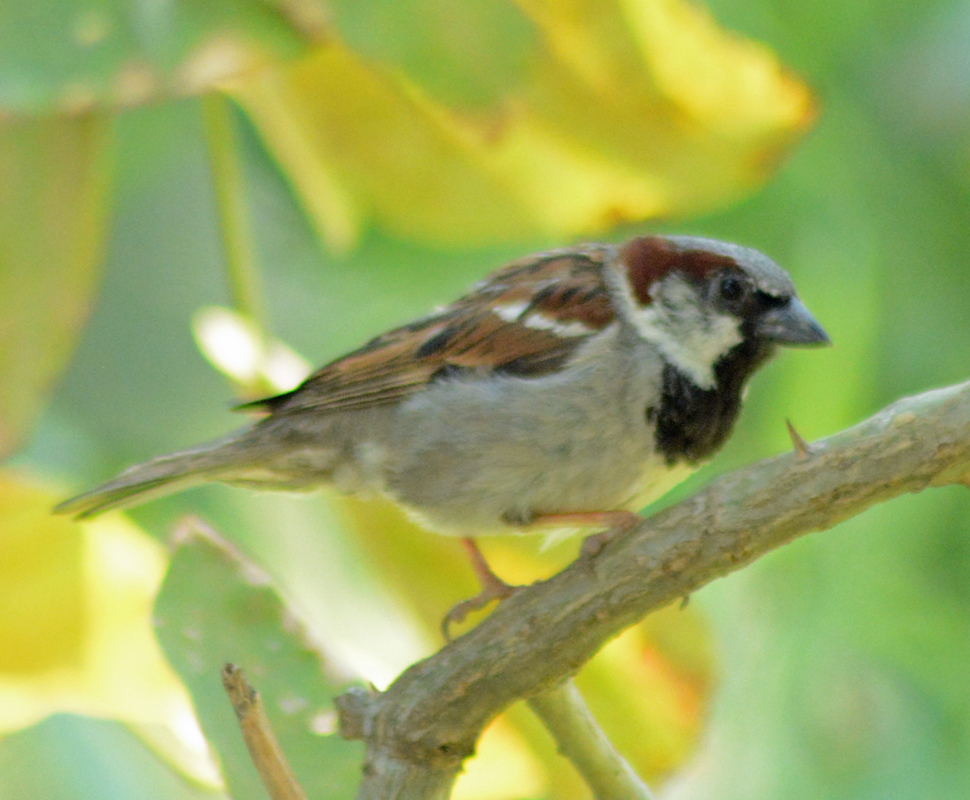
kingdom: Animalia
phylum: Chordata
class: Aves
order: Passeriformes
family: Passeridae
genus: Passer
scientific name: Passer domesticus
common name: House sparrow
